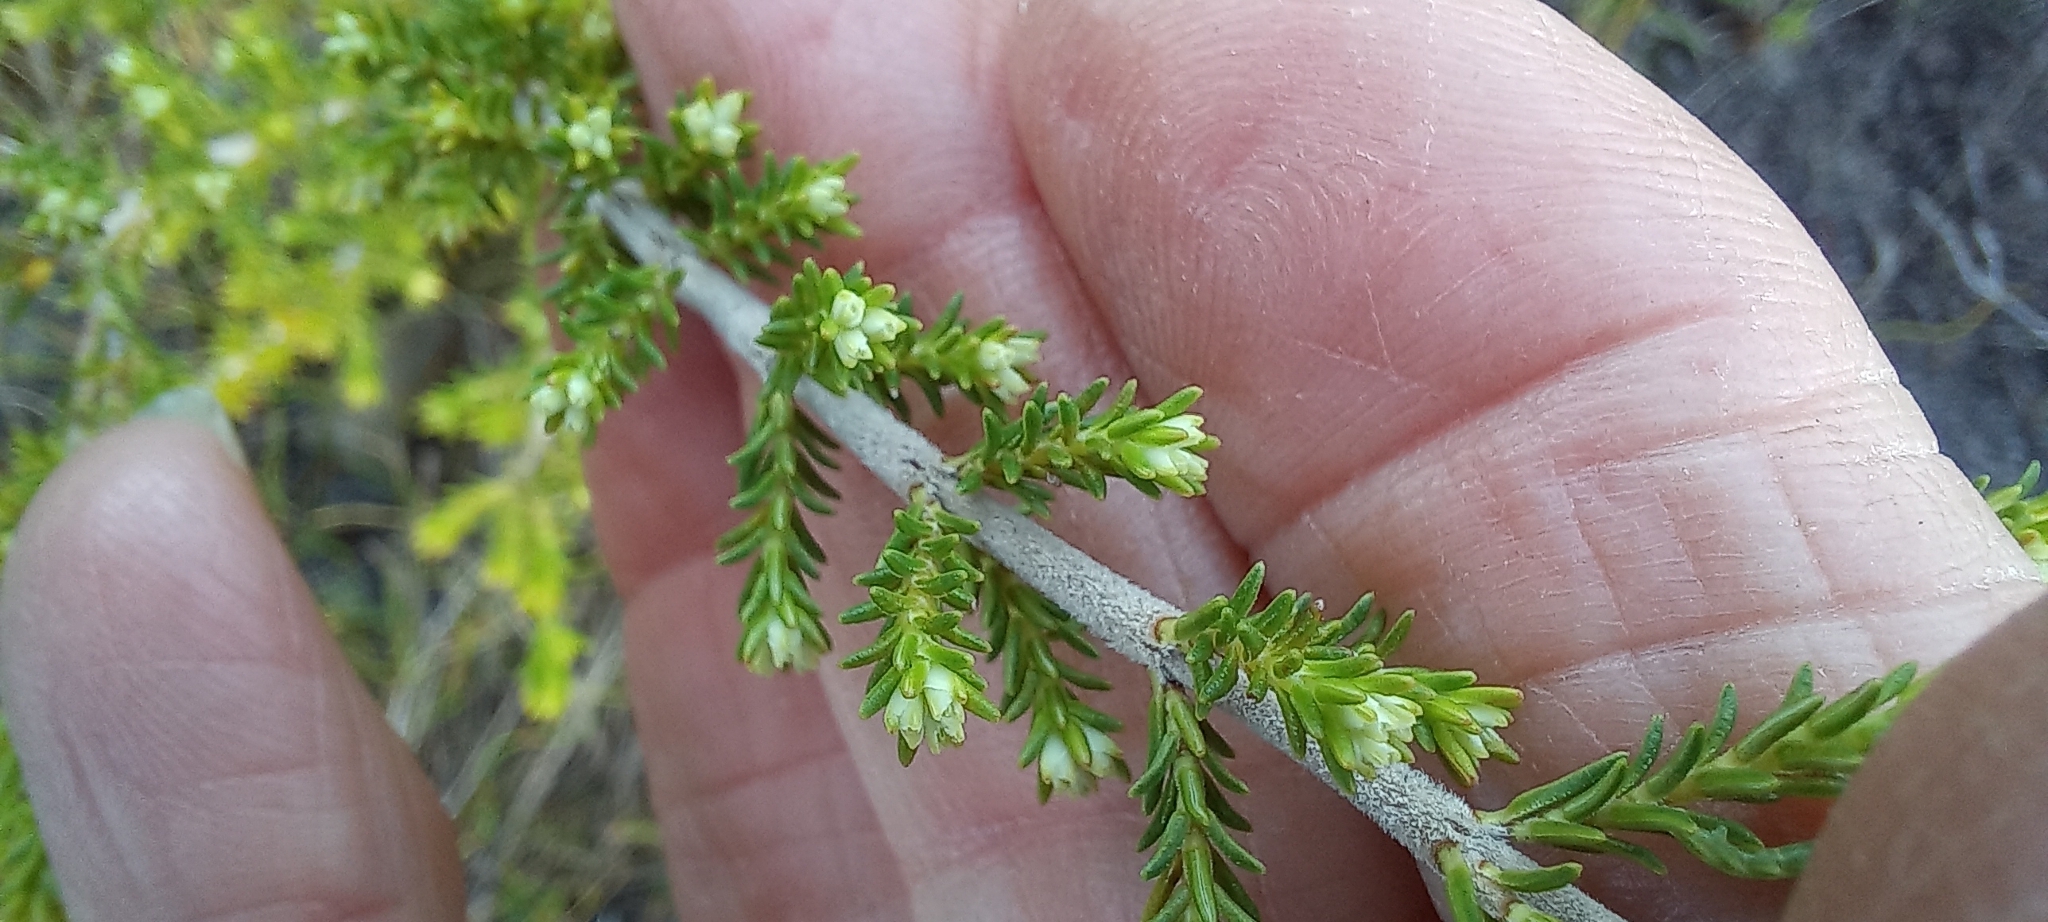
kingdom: Plantae
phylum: Tracheophyta
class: Magnoliopsida
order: Ericales
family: Ericaceae
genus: Erica
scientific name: Erica imbricata
